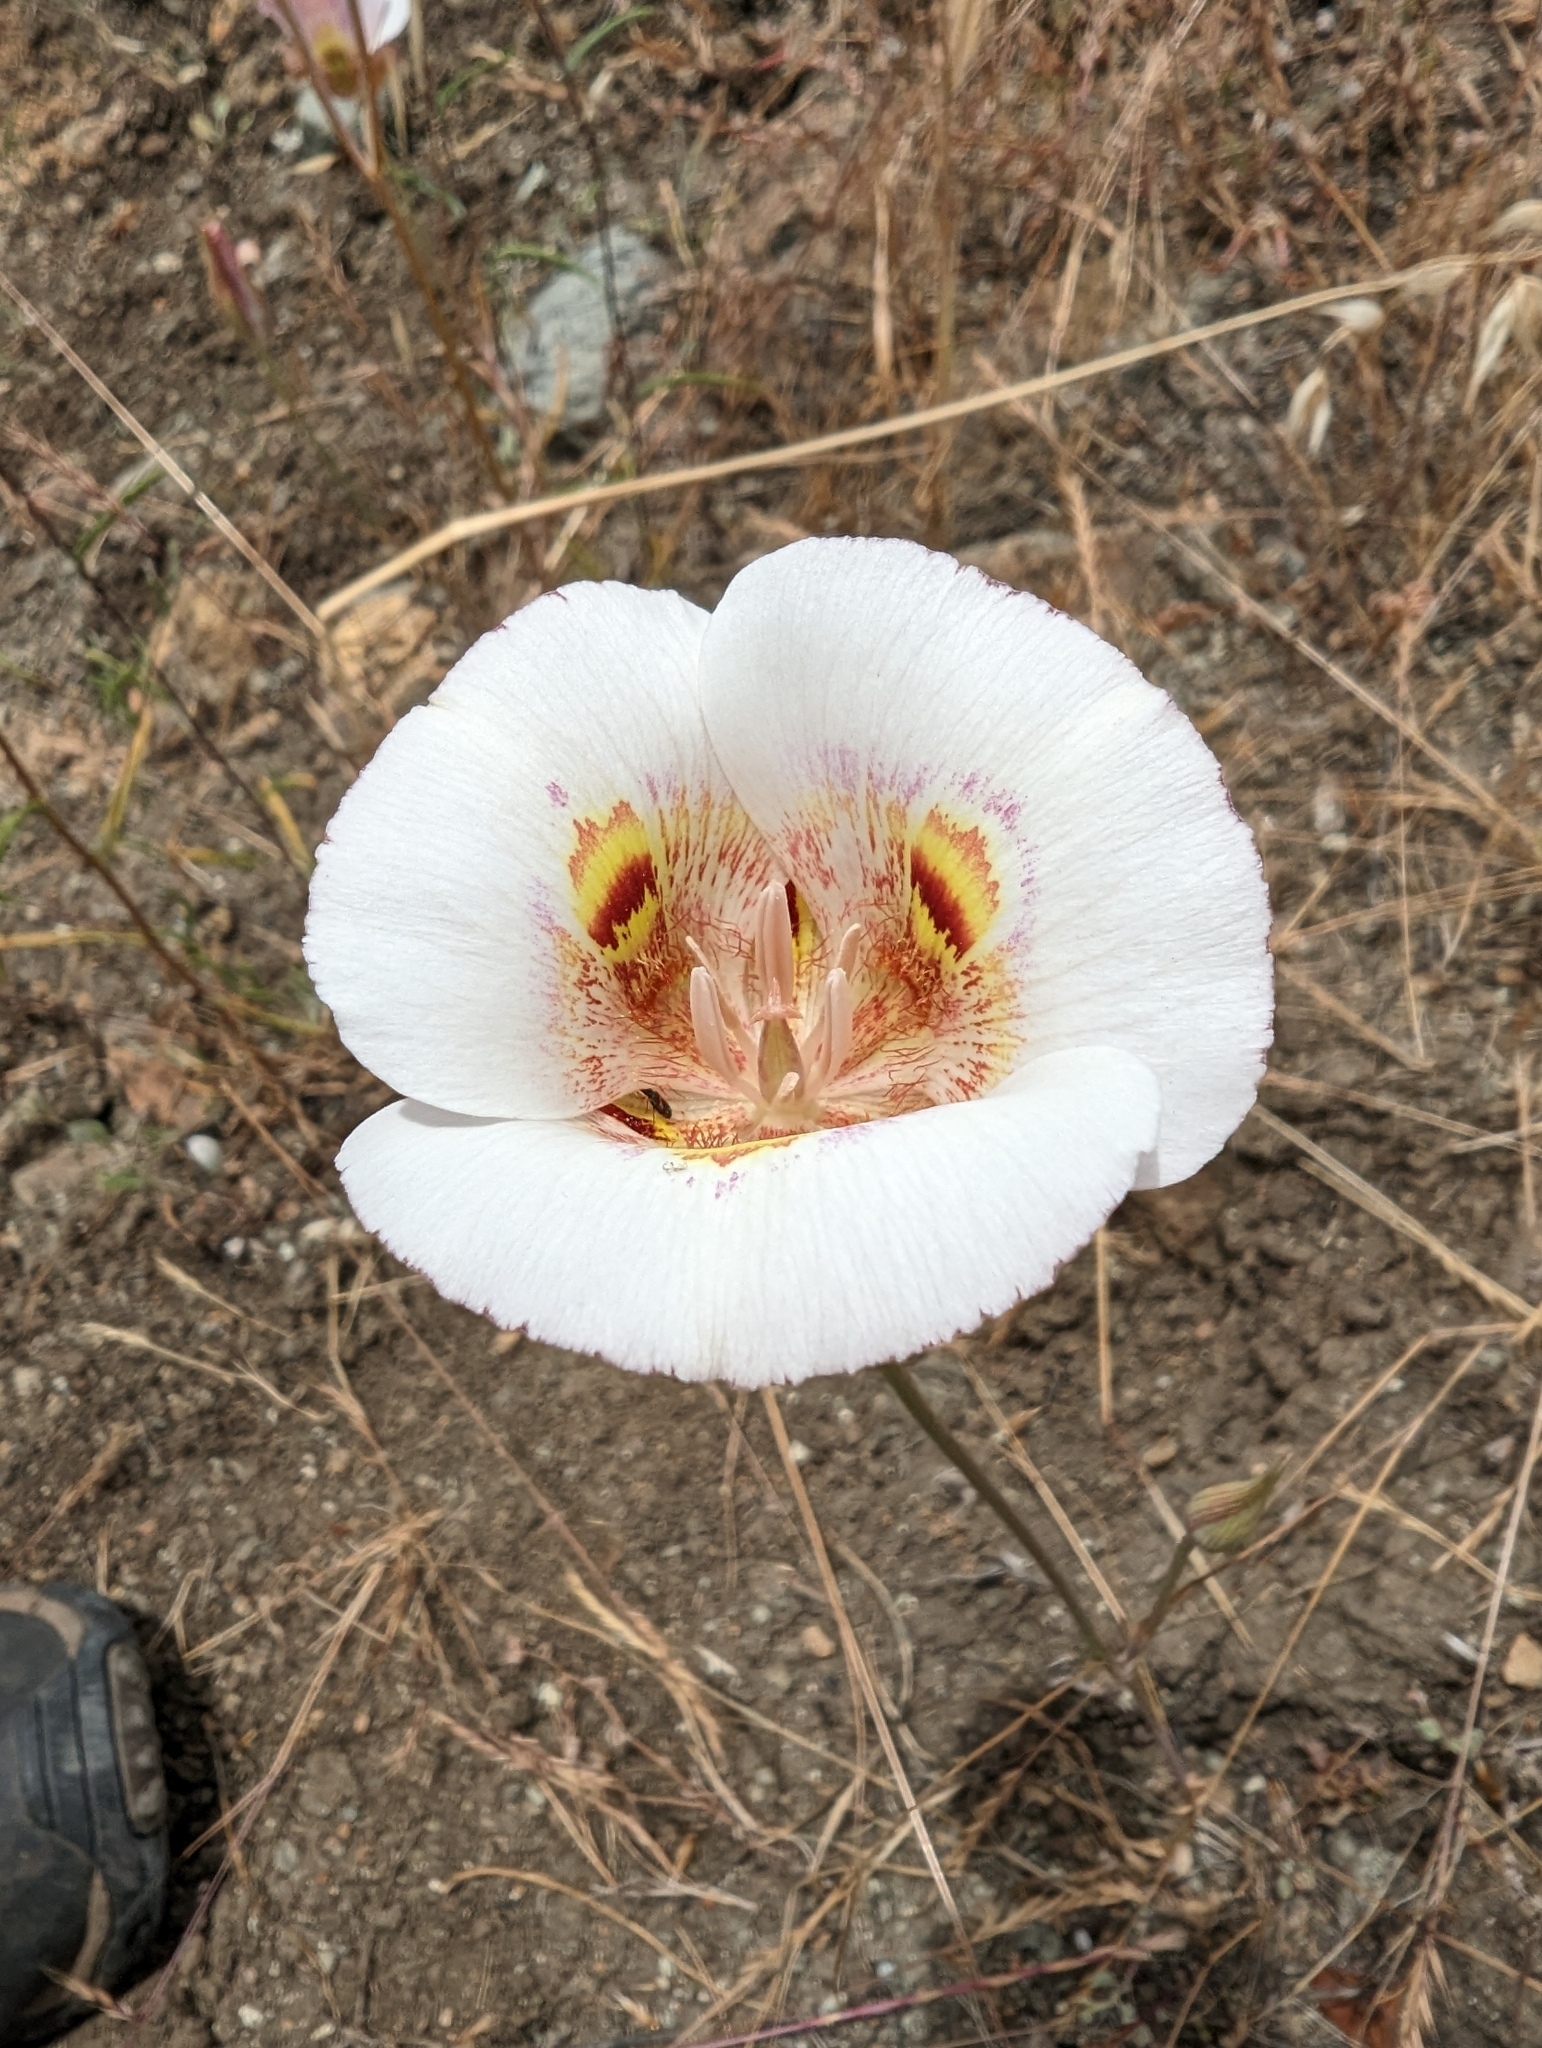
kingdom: Plantae
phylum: Tracheophyta
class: Liliopsida
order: Liliales
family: Liliaceae
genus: Calochortus
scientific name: Calochortus argillosus
